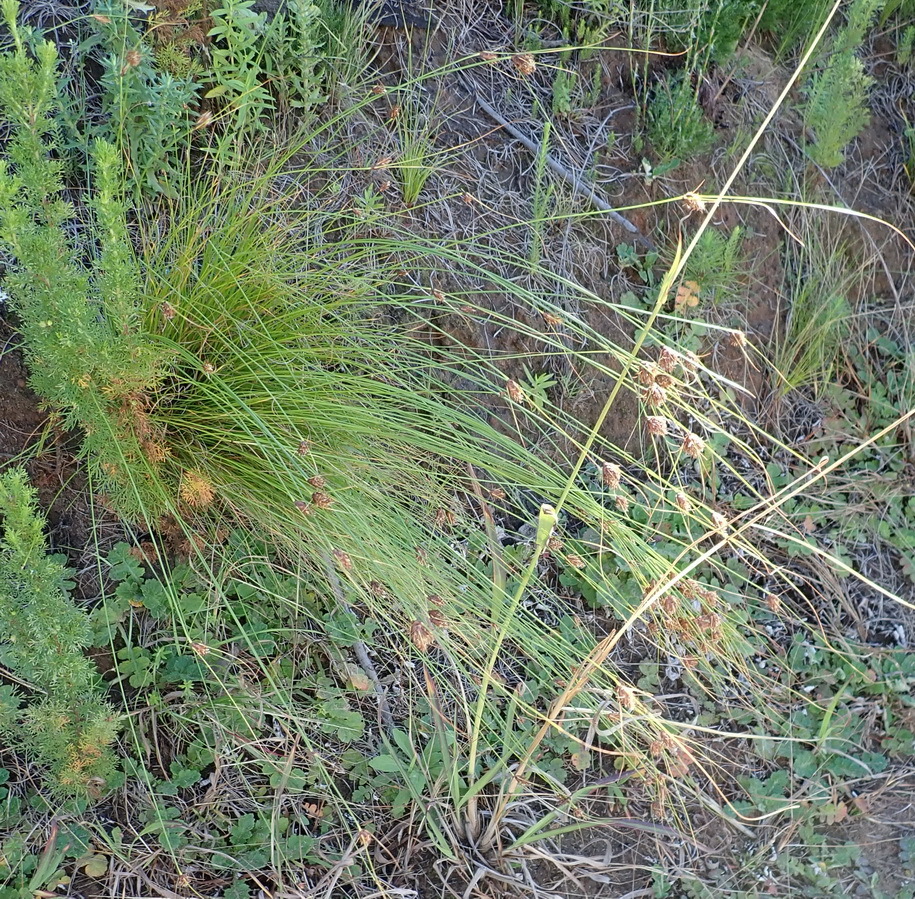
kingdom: Plantae
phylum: Tracheophyta
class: Liliopsida
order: Poales
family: Cyperaceae
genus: Ficinia
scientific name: Ficinia nigrescens
